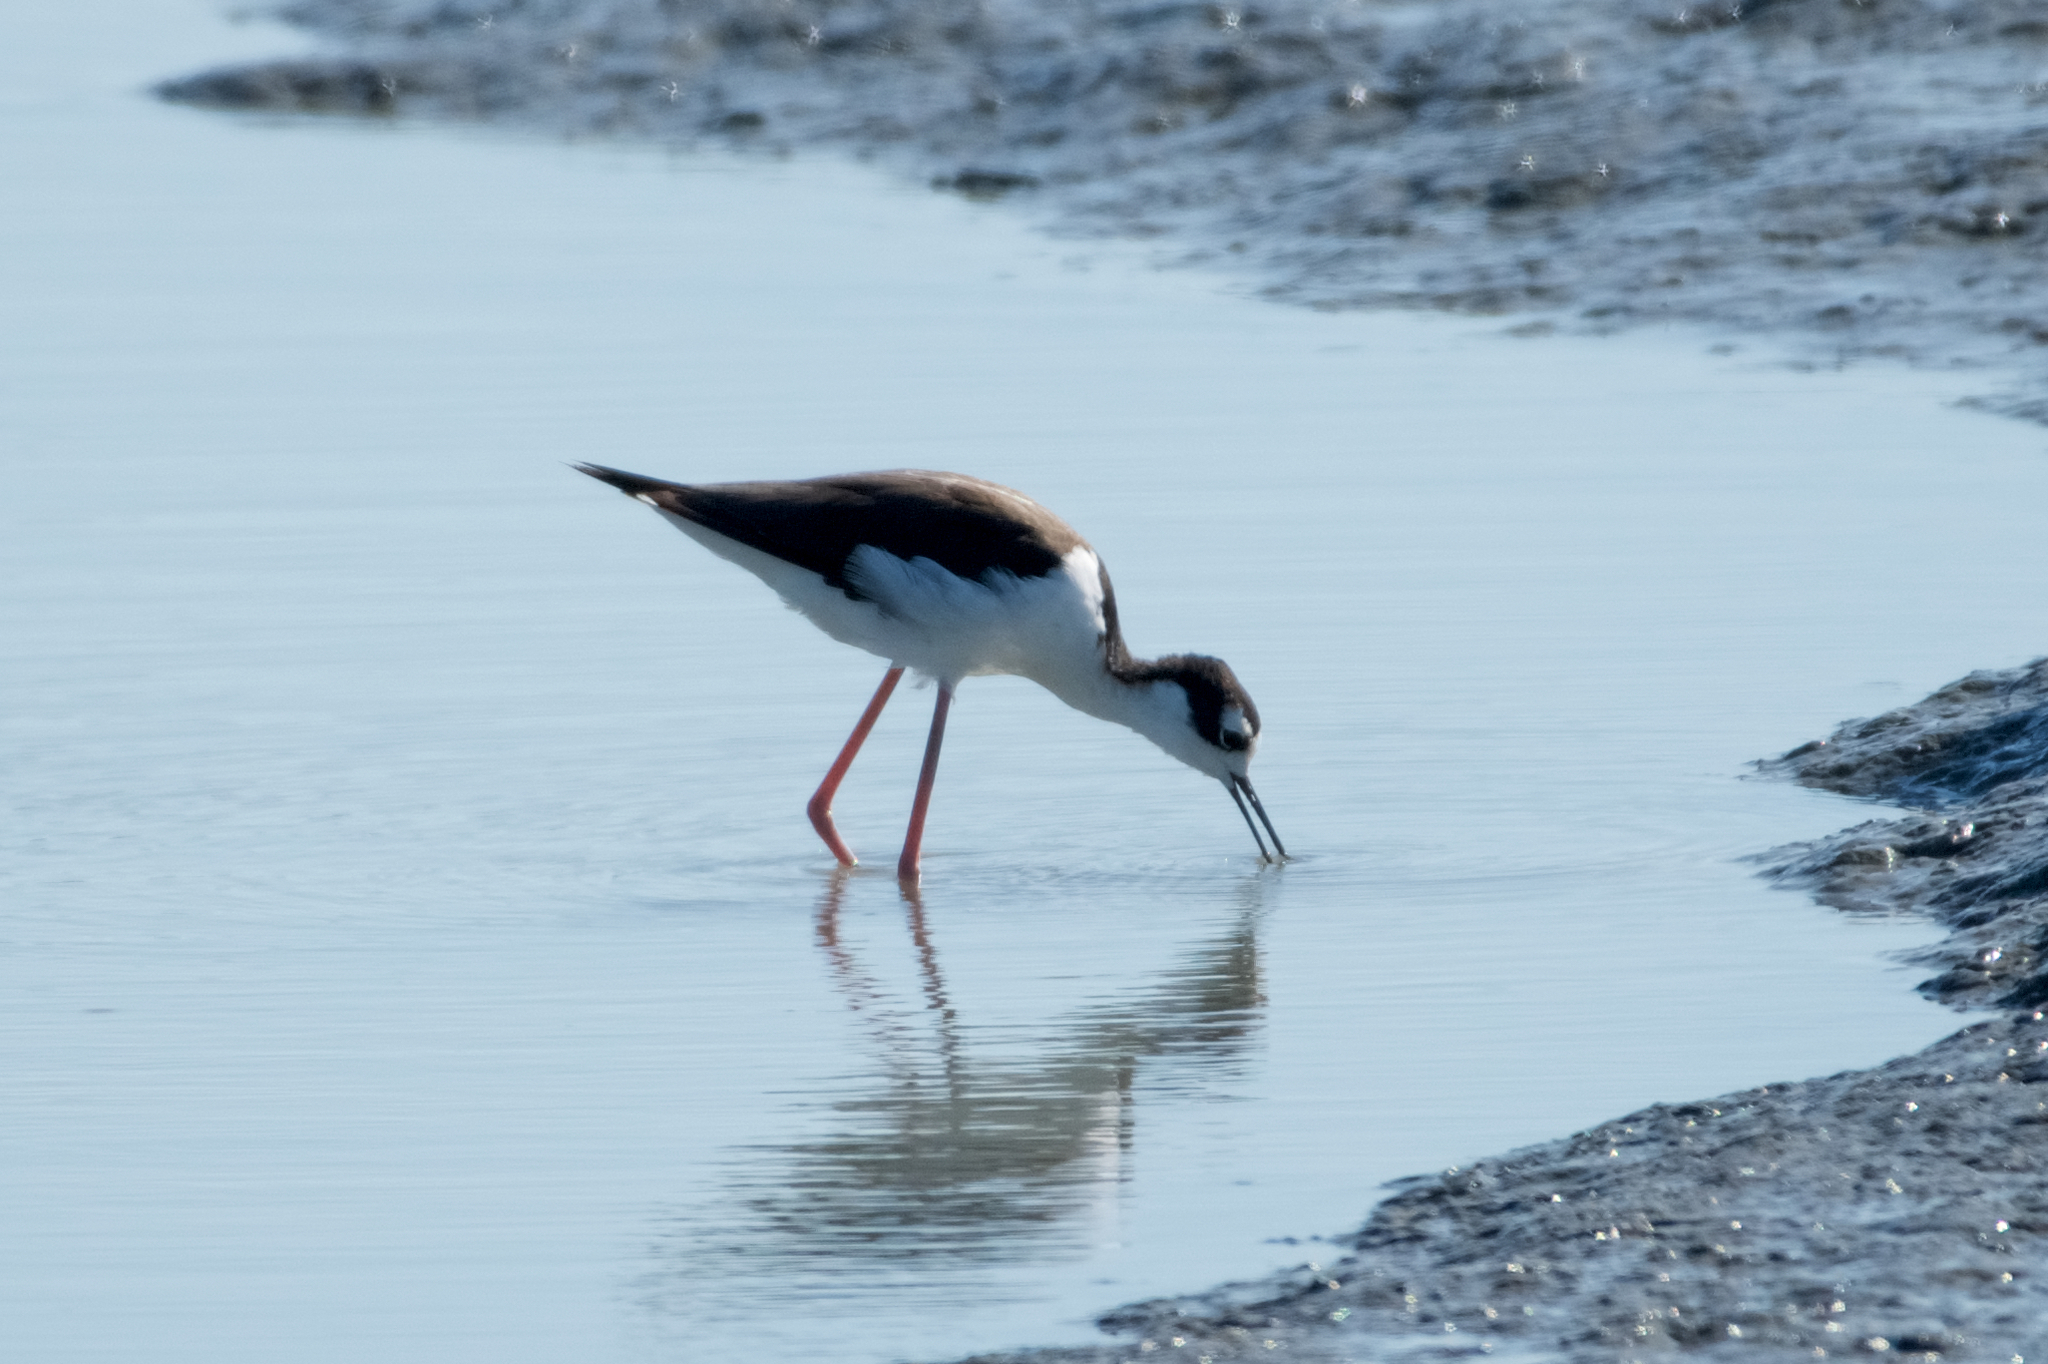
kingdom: Animalia
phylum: Chordata
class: Aves
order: Charadriiformes
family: Recurvirostridae
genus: Himantopus
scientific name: Himantopus mexicanus
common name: Black-necked stilt
